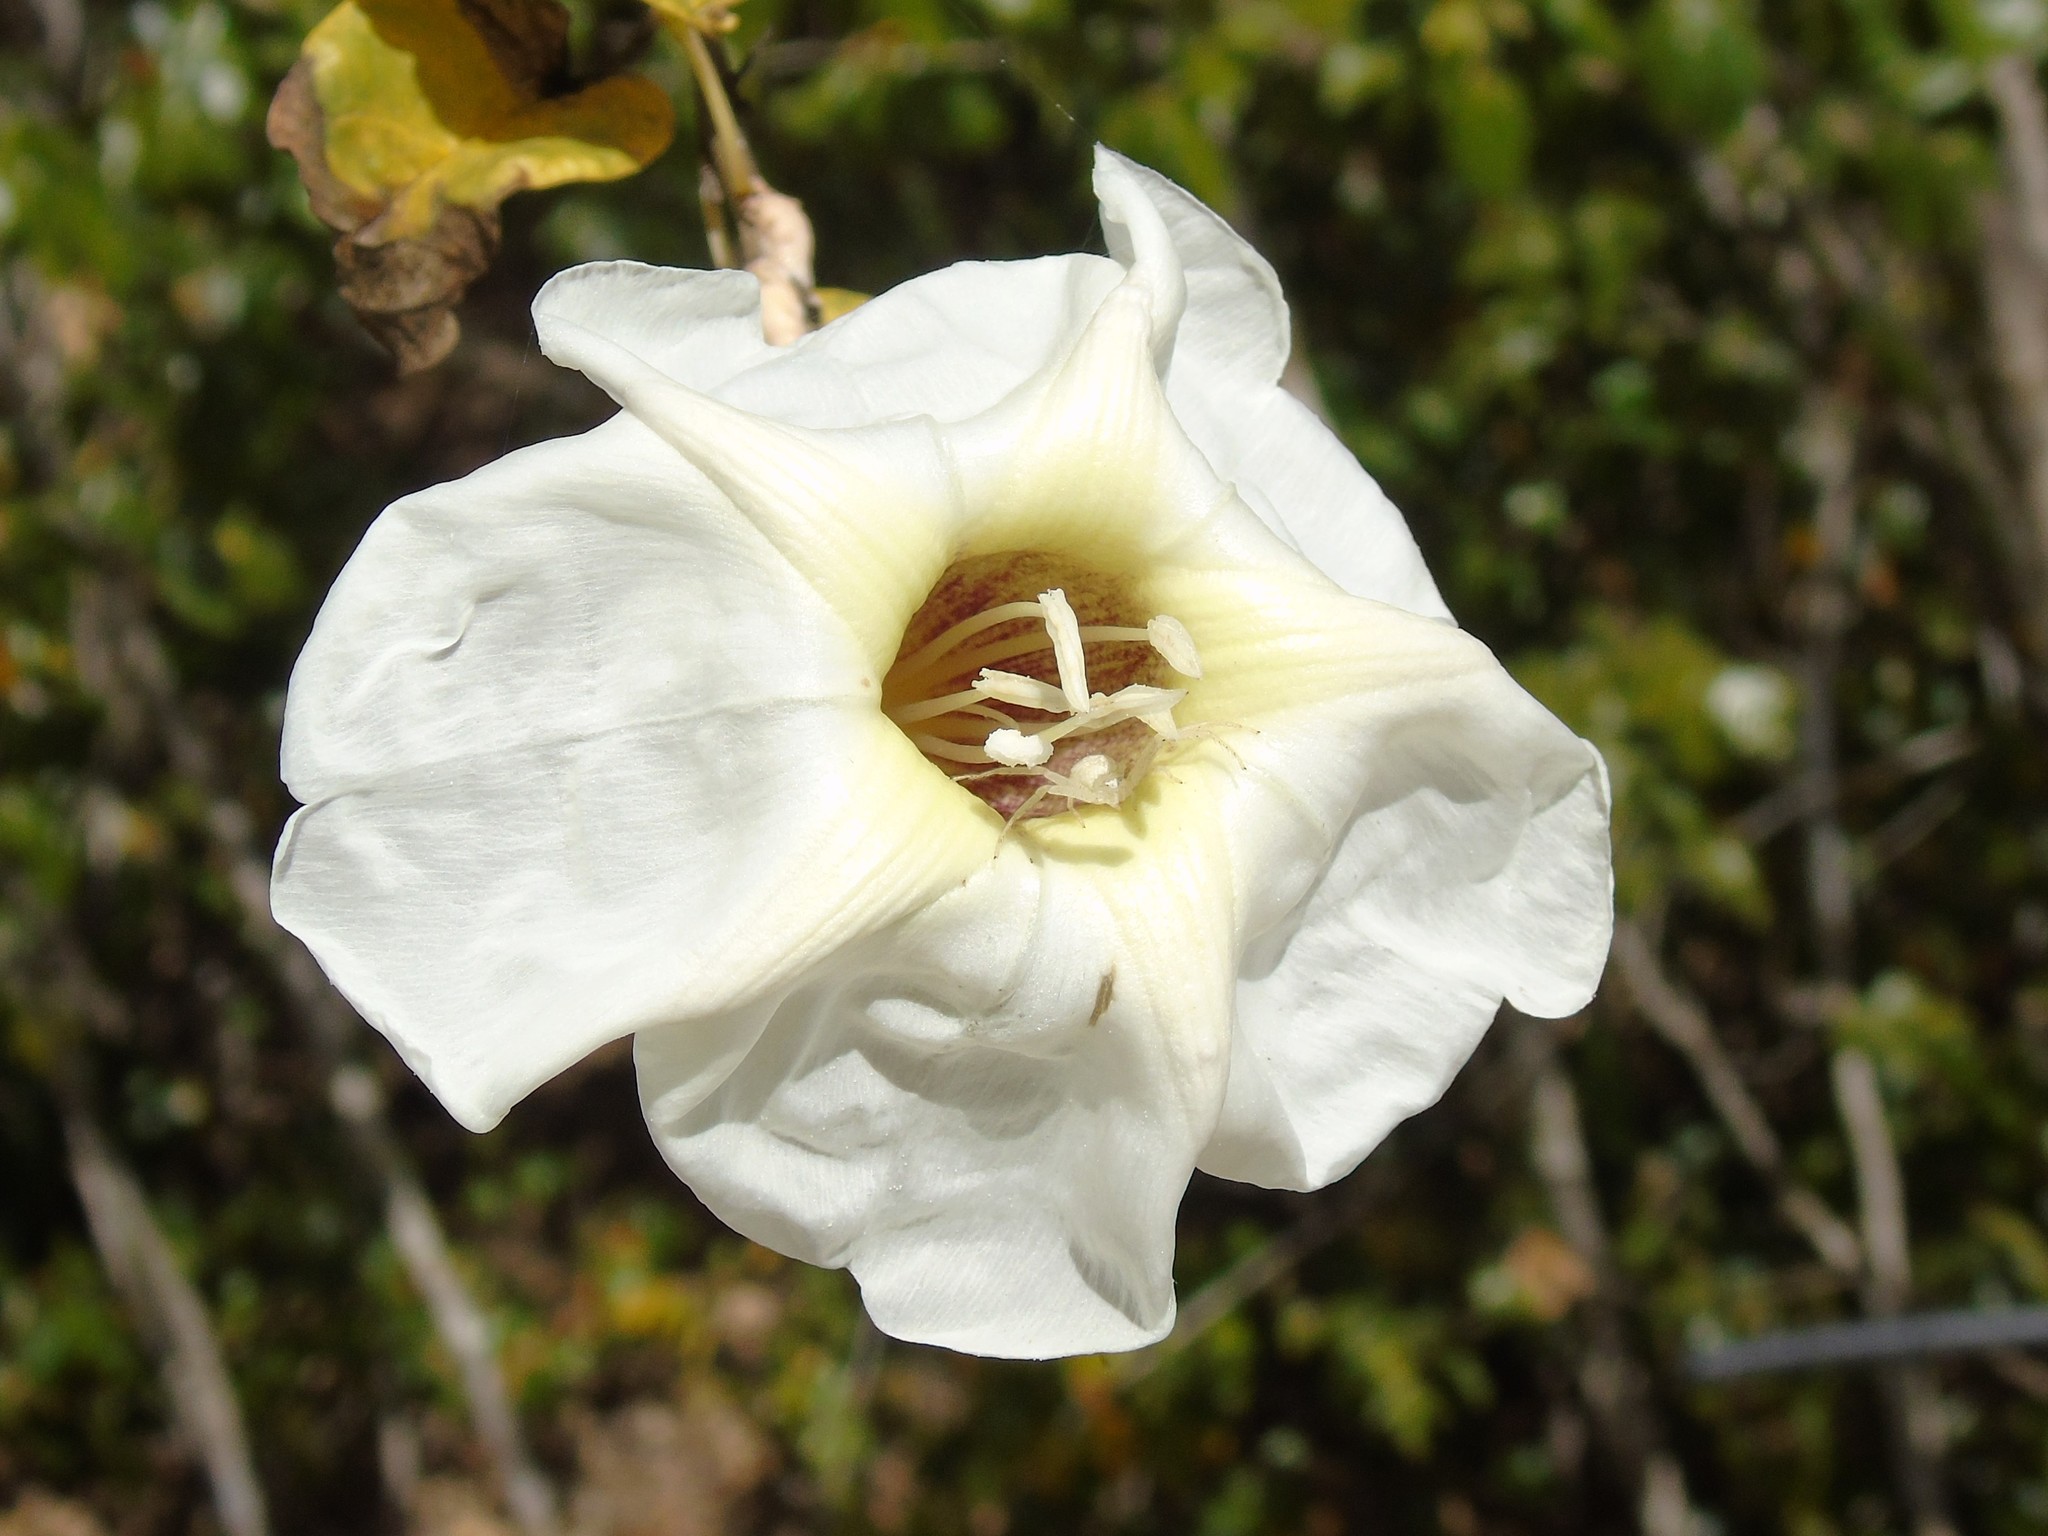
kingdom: Plantae
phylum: Tracheophyta
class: Magnoliopsida
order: Solanales
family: Convolvulaceae
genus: Ipomoea
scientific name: Ipomoea arborescens
